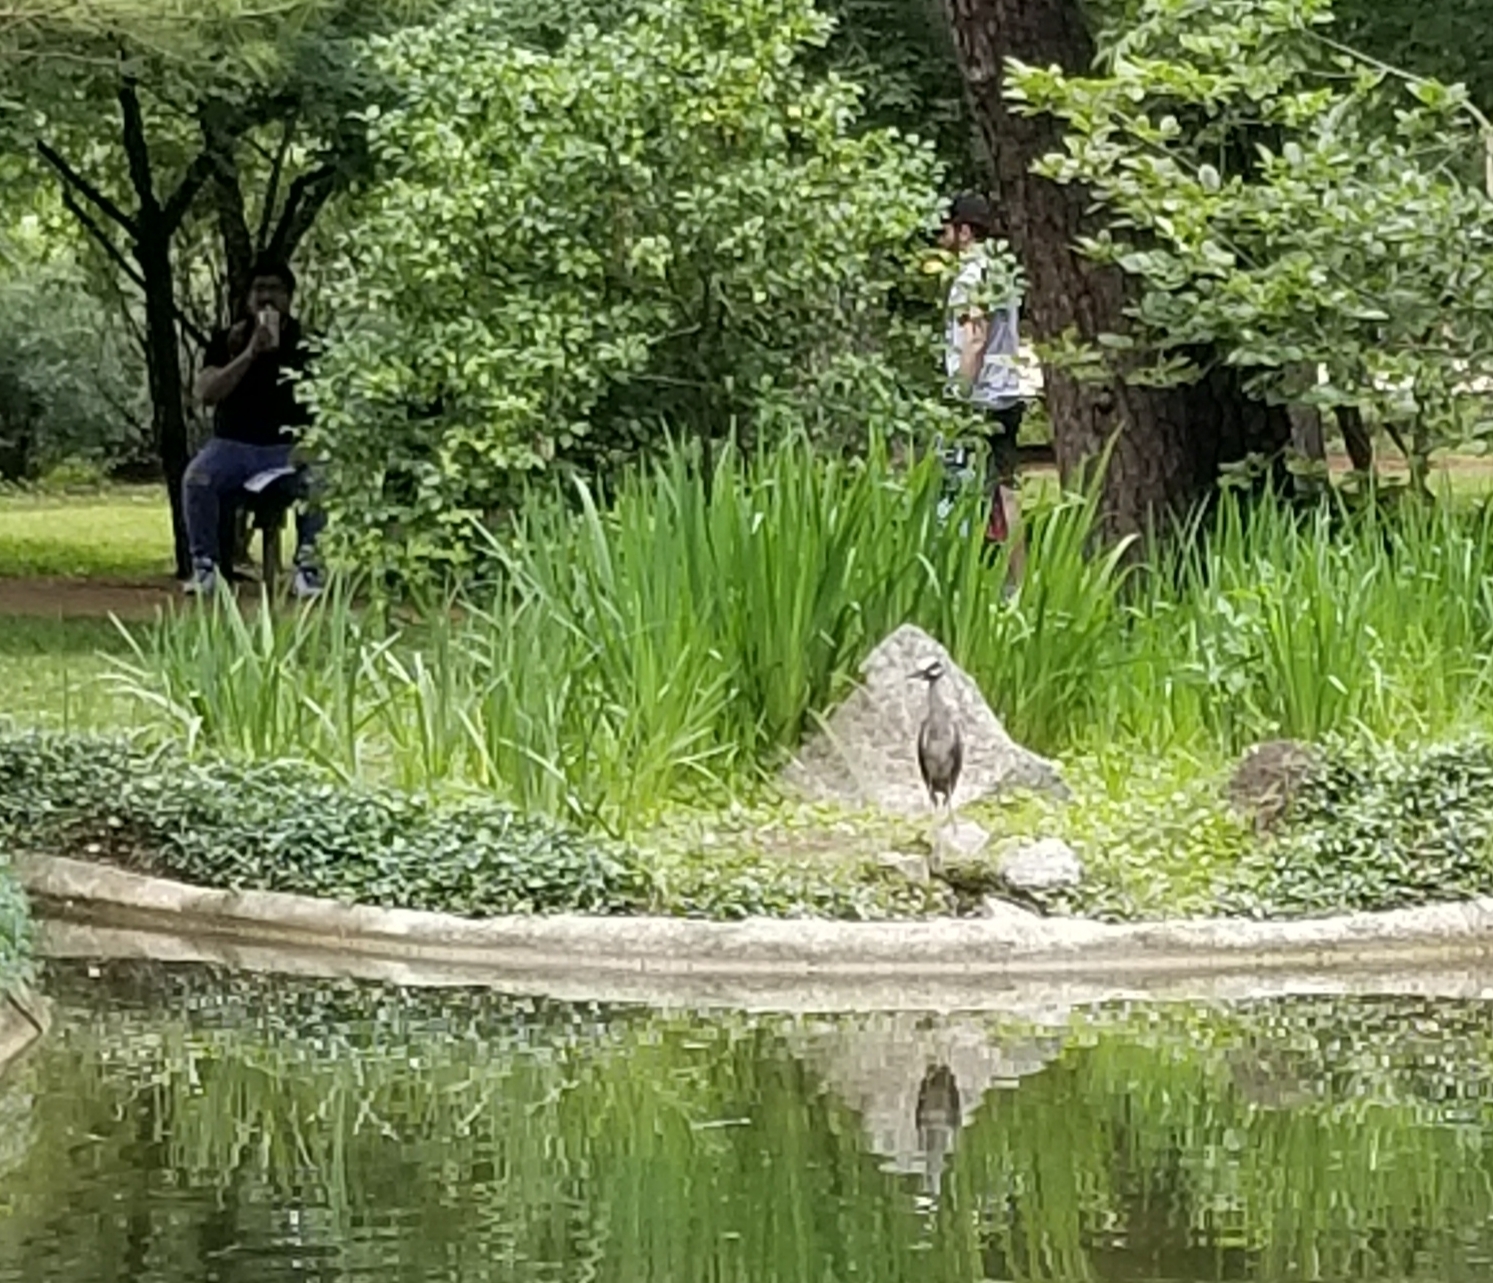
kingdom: Animalia
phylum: Chordata
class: Aves
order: Pelecaniformes
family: Ardeidae
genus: Nyctanassa
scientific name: Nyctanassa violacea
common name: Yellow-crowned night heron
